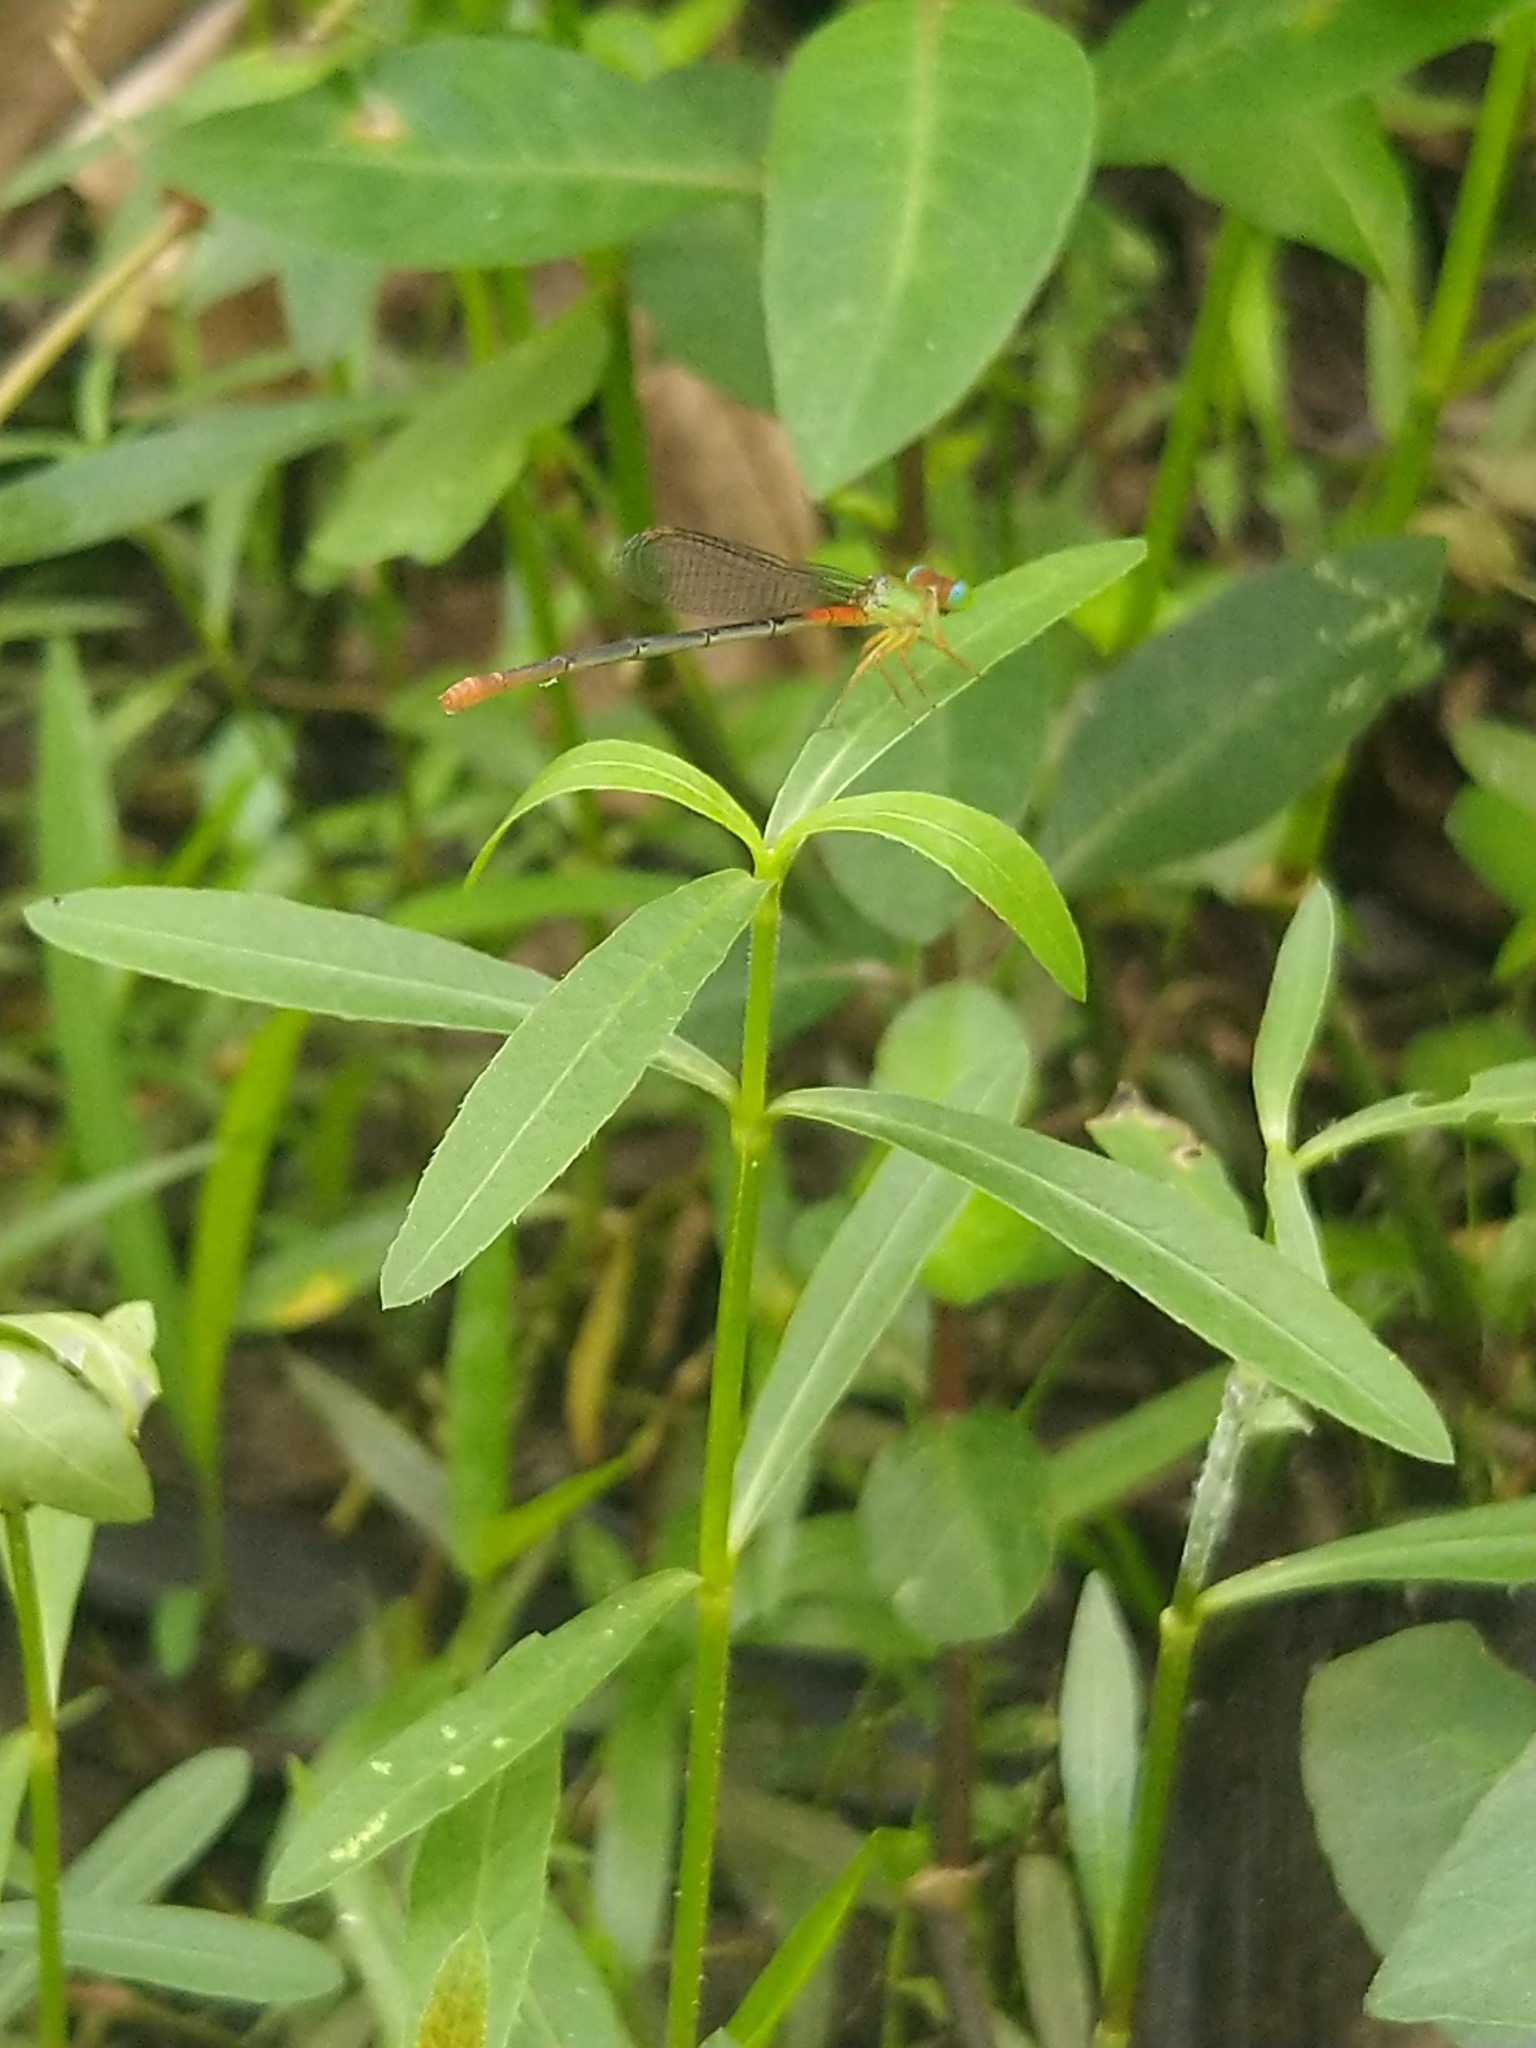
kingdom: Animalia
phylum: Arthropoda
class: Insecta
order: Odonata
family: Coenagrionidae
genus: Ceriagrion
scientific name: Ceriagrion cerinorubellum
